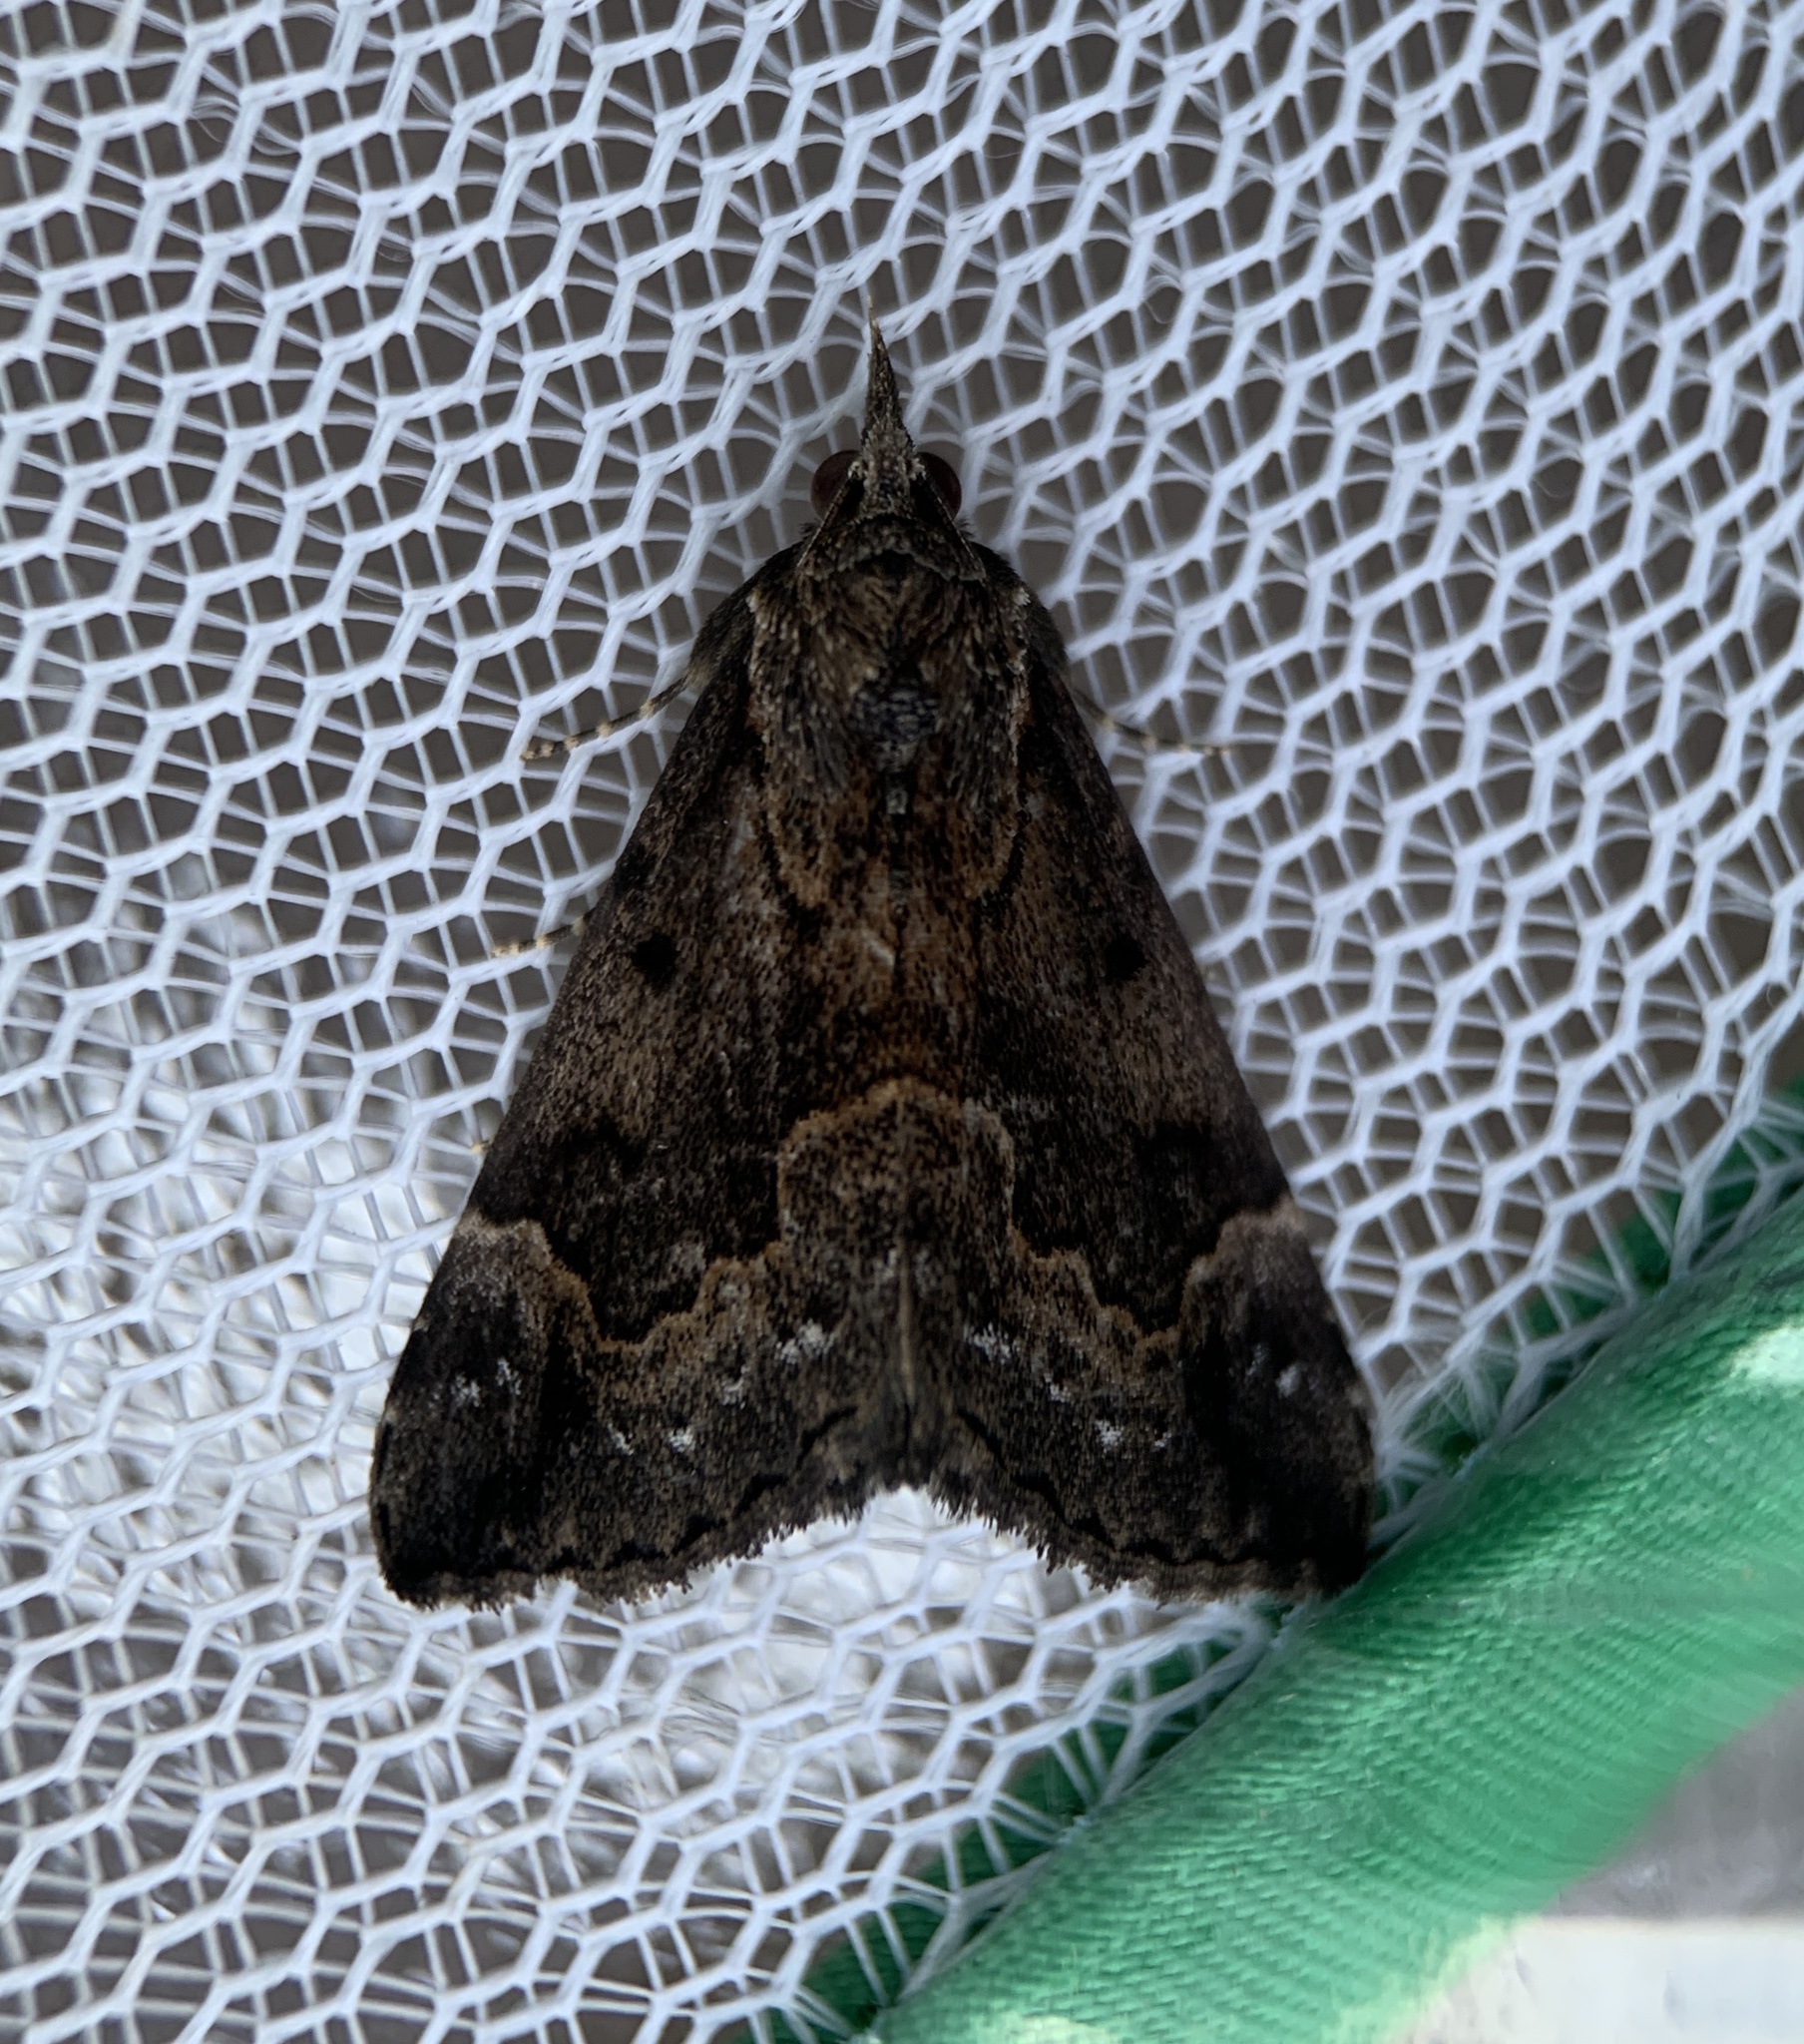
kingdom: Animalia
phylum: Arthropoda
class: Insecta
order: Lepidoptera
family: Erebidae
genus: Hypena
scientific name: Hypena baltimoralis
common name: Baltimore snout
